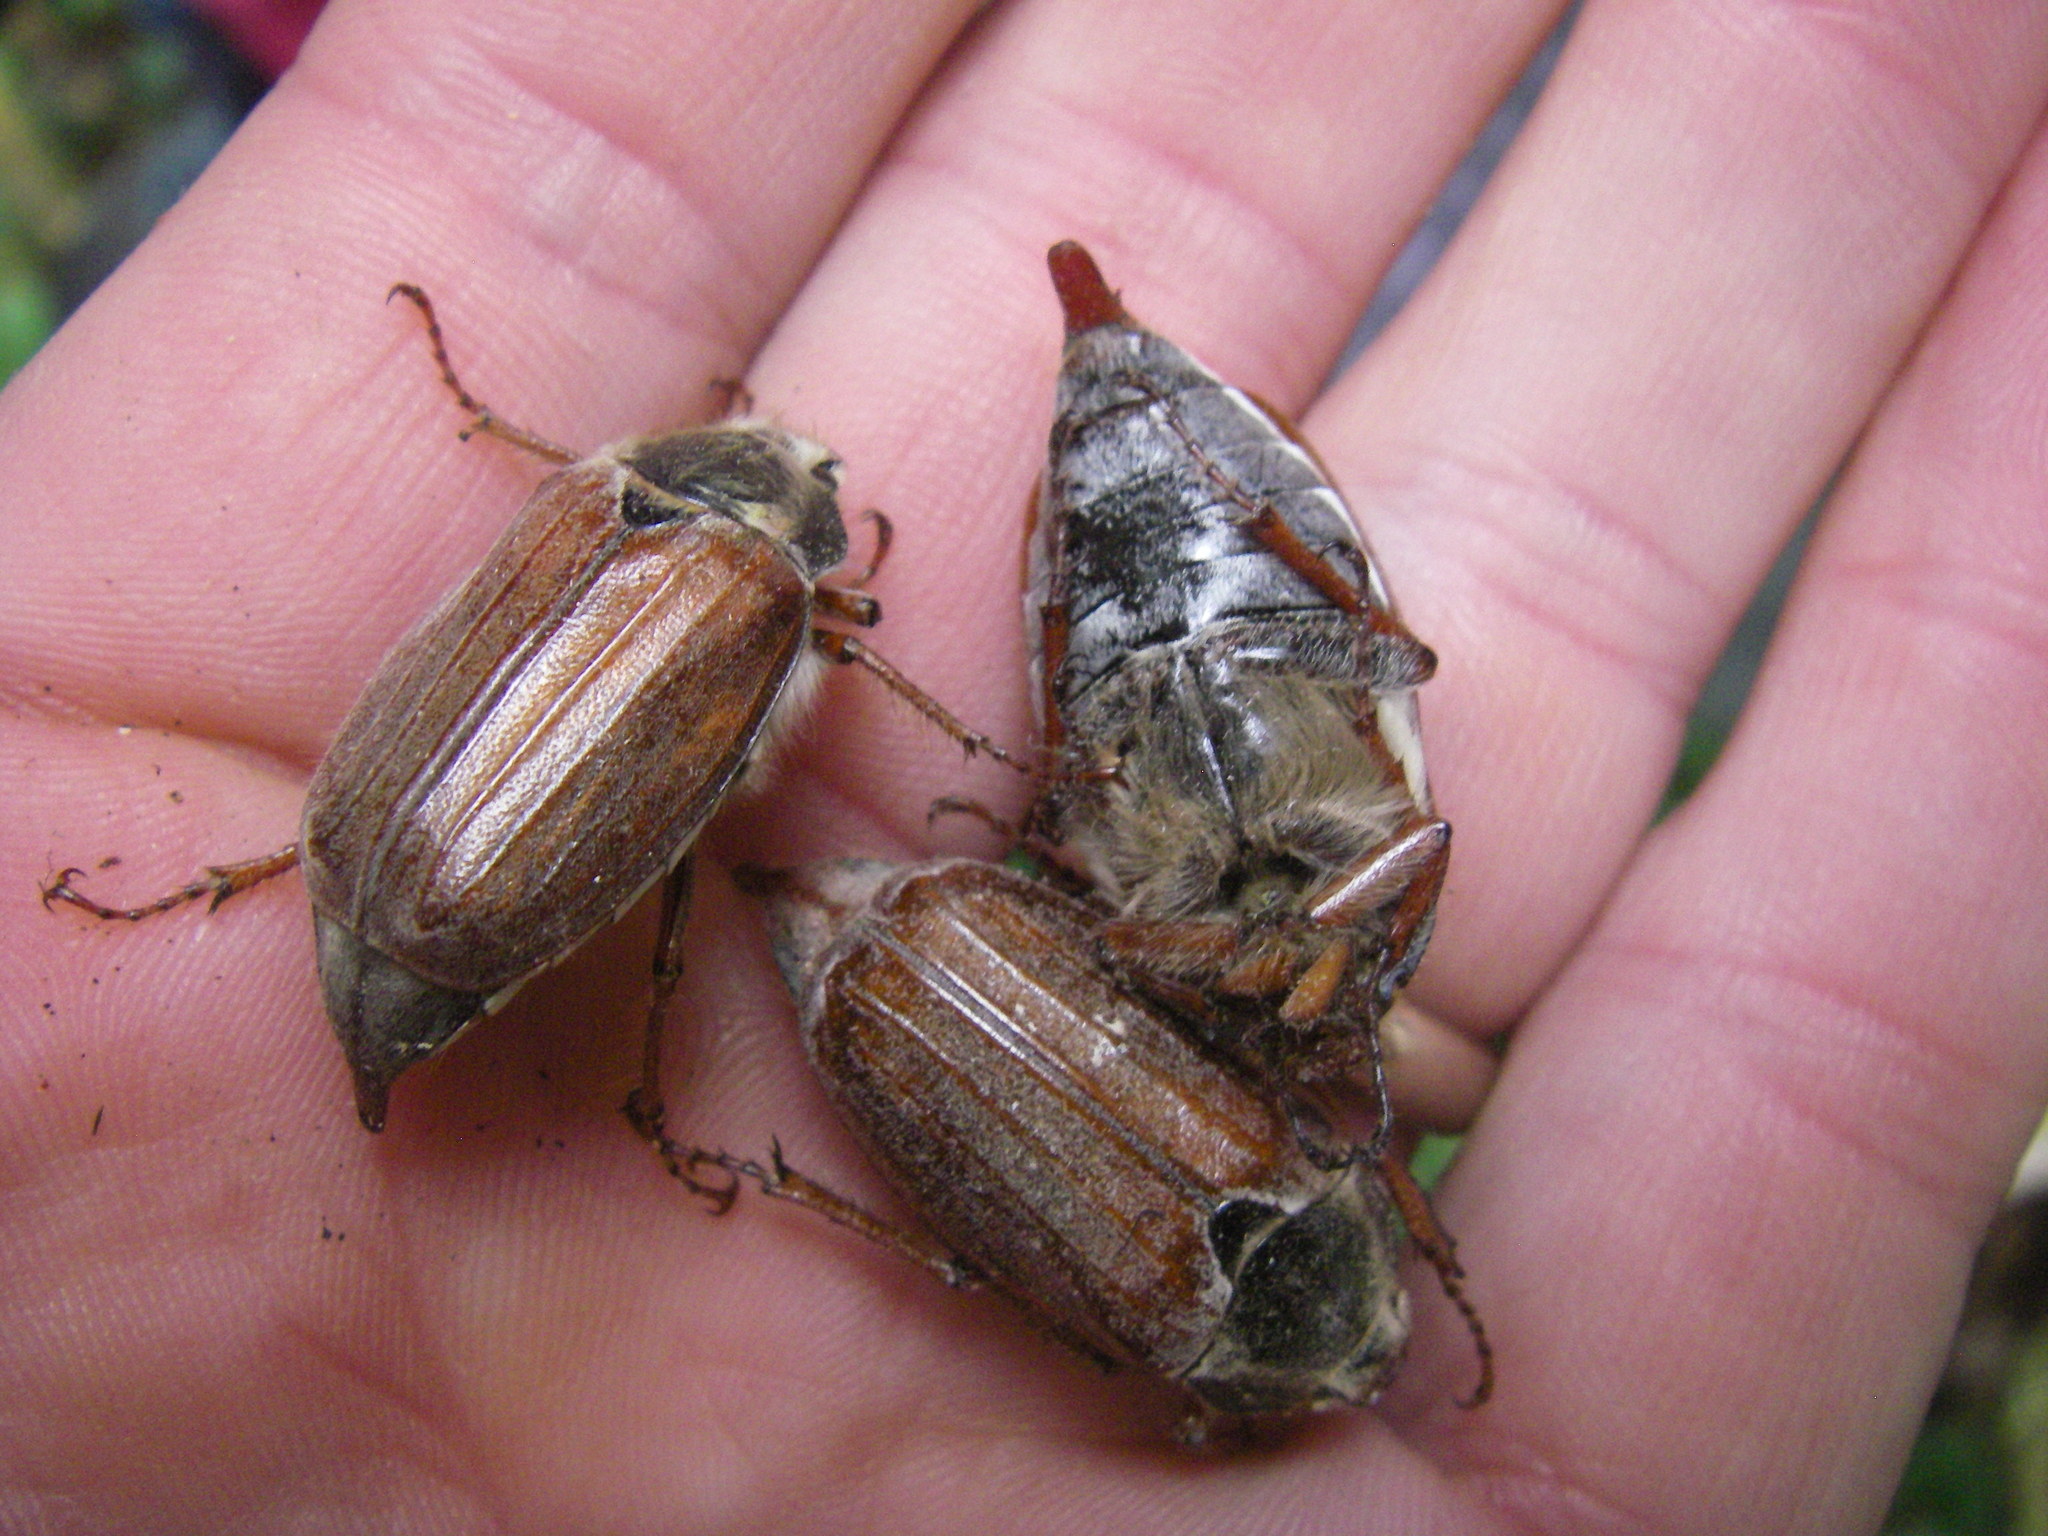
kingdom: Animalia
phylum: Arthropoda
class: Insecta
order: Coleoptera
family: Scarabaeidae
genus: Melolontha
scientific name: Melolontha melolontha
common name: Cockchafer maybeetle
